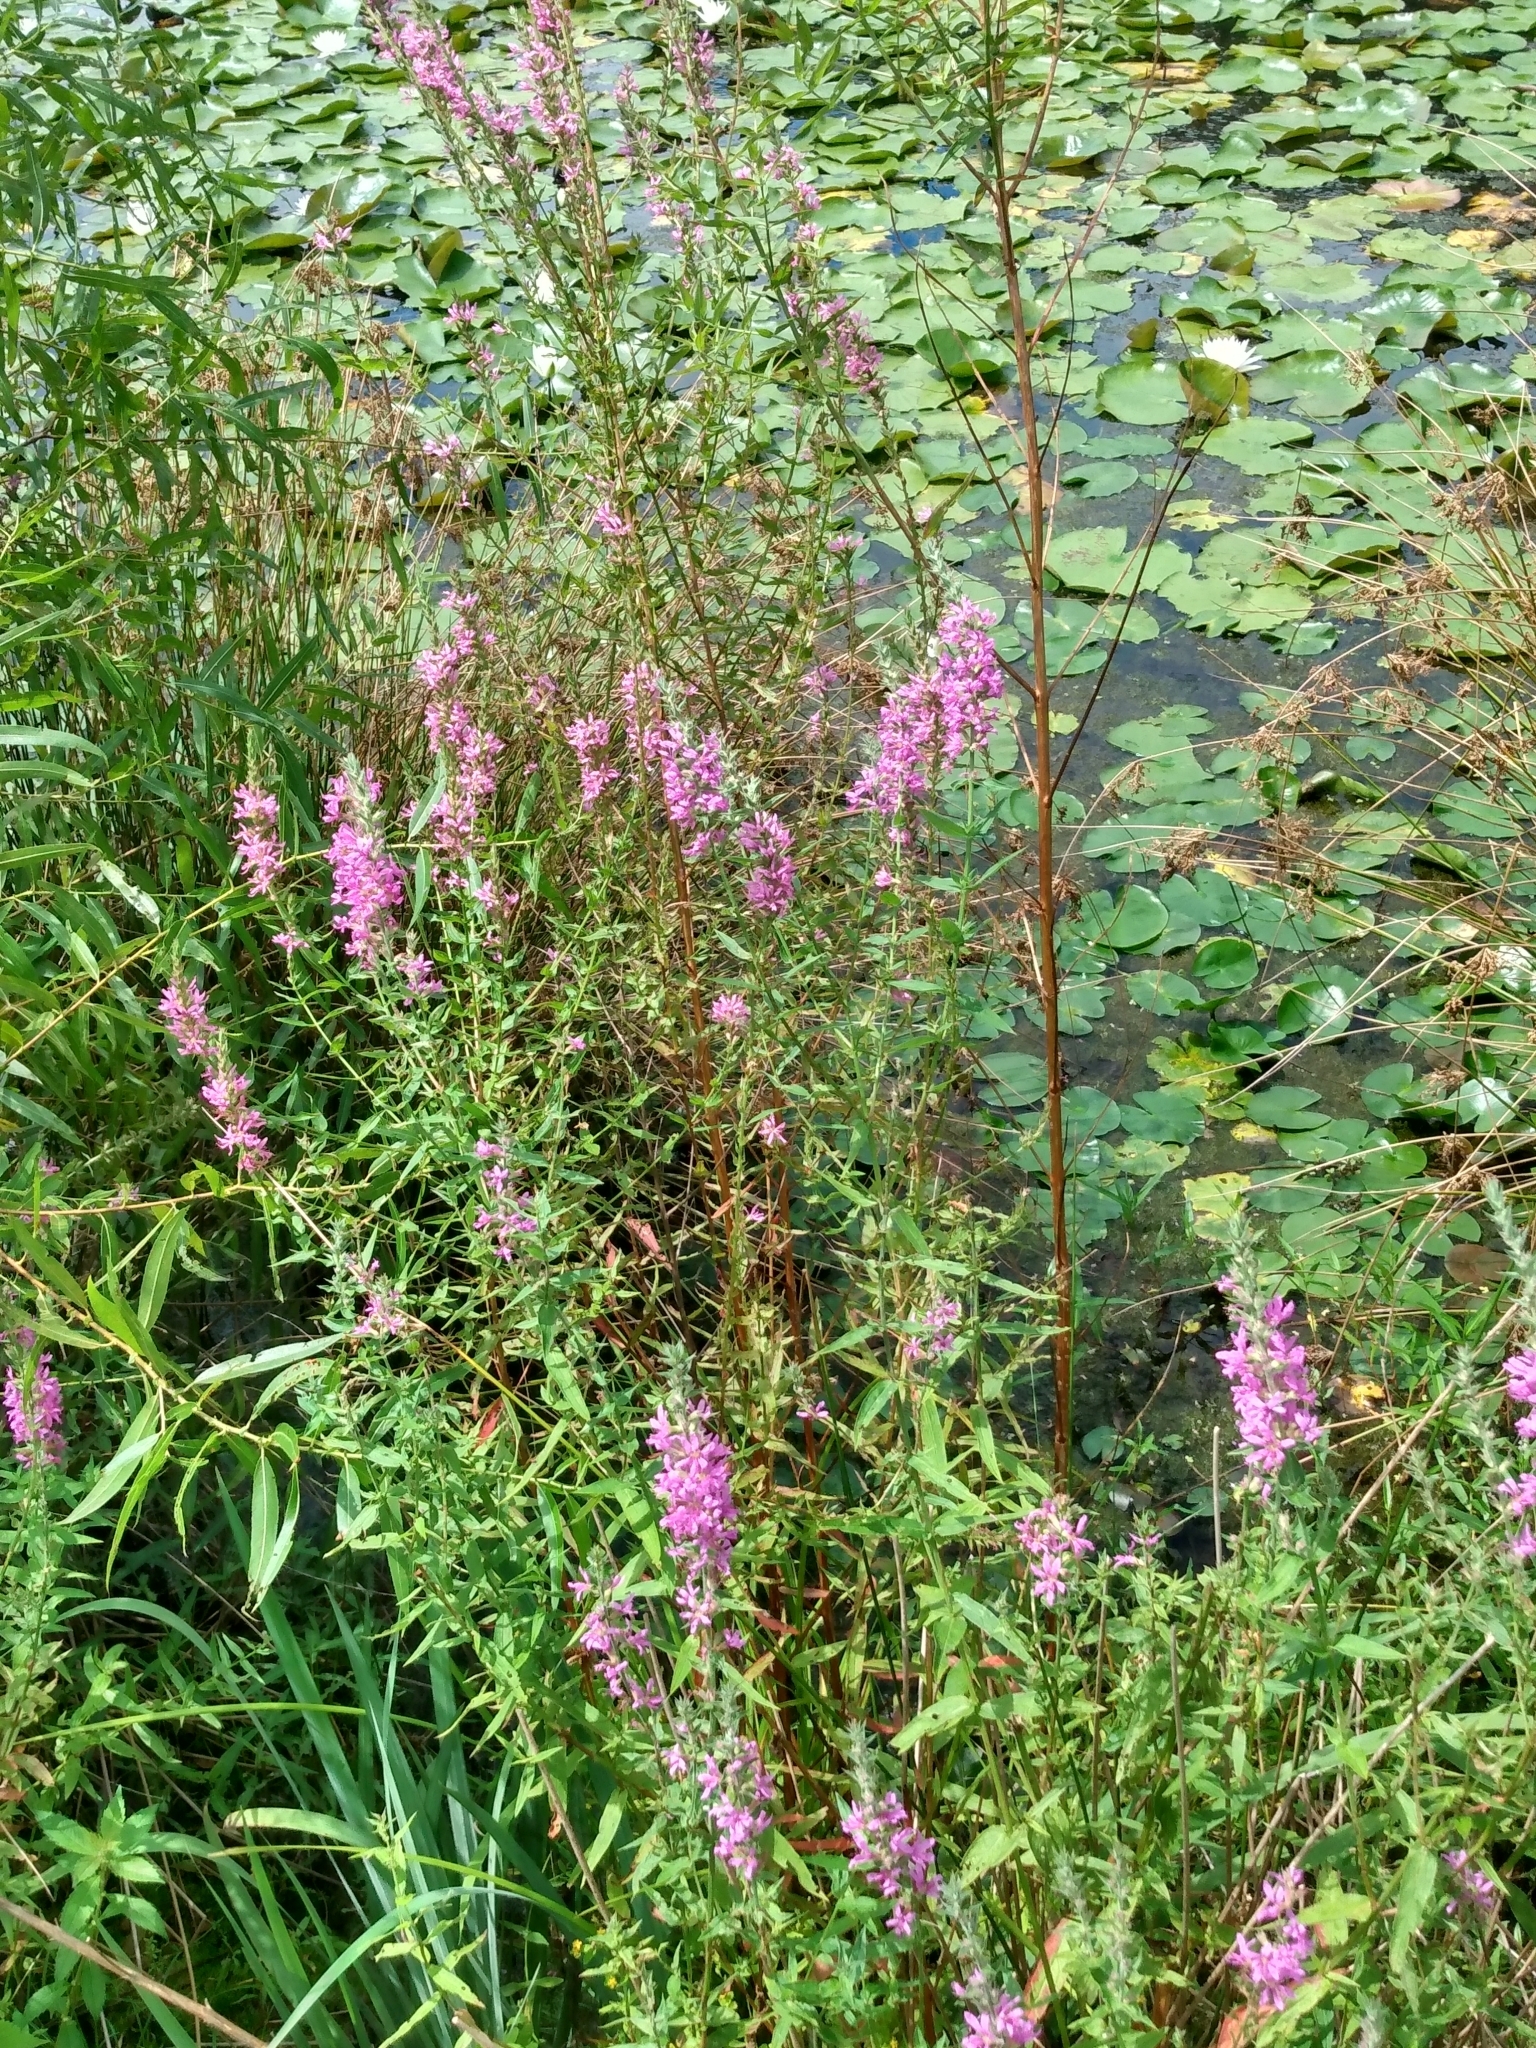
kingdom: Plantae
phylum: Tracheophyta
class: Magnoliopsida
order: Myrtales
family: Lythraceae
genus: Lythrum
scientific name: Lythrum salicaria
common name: Purple loosestrife
